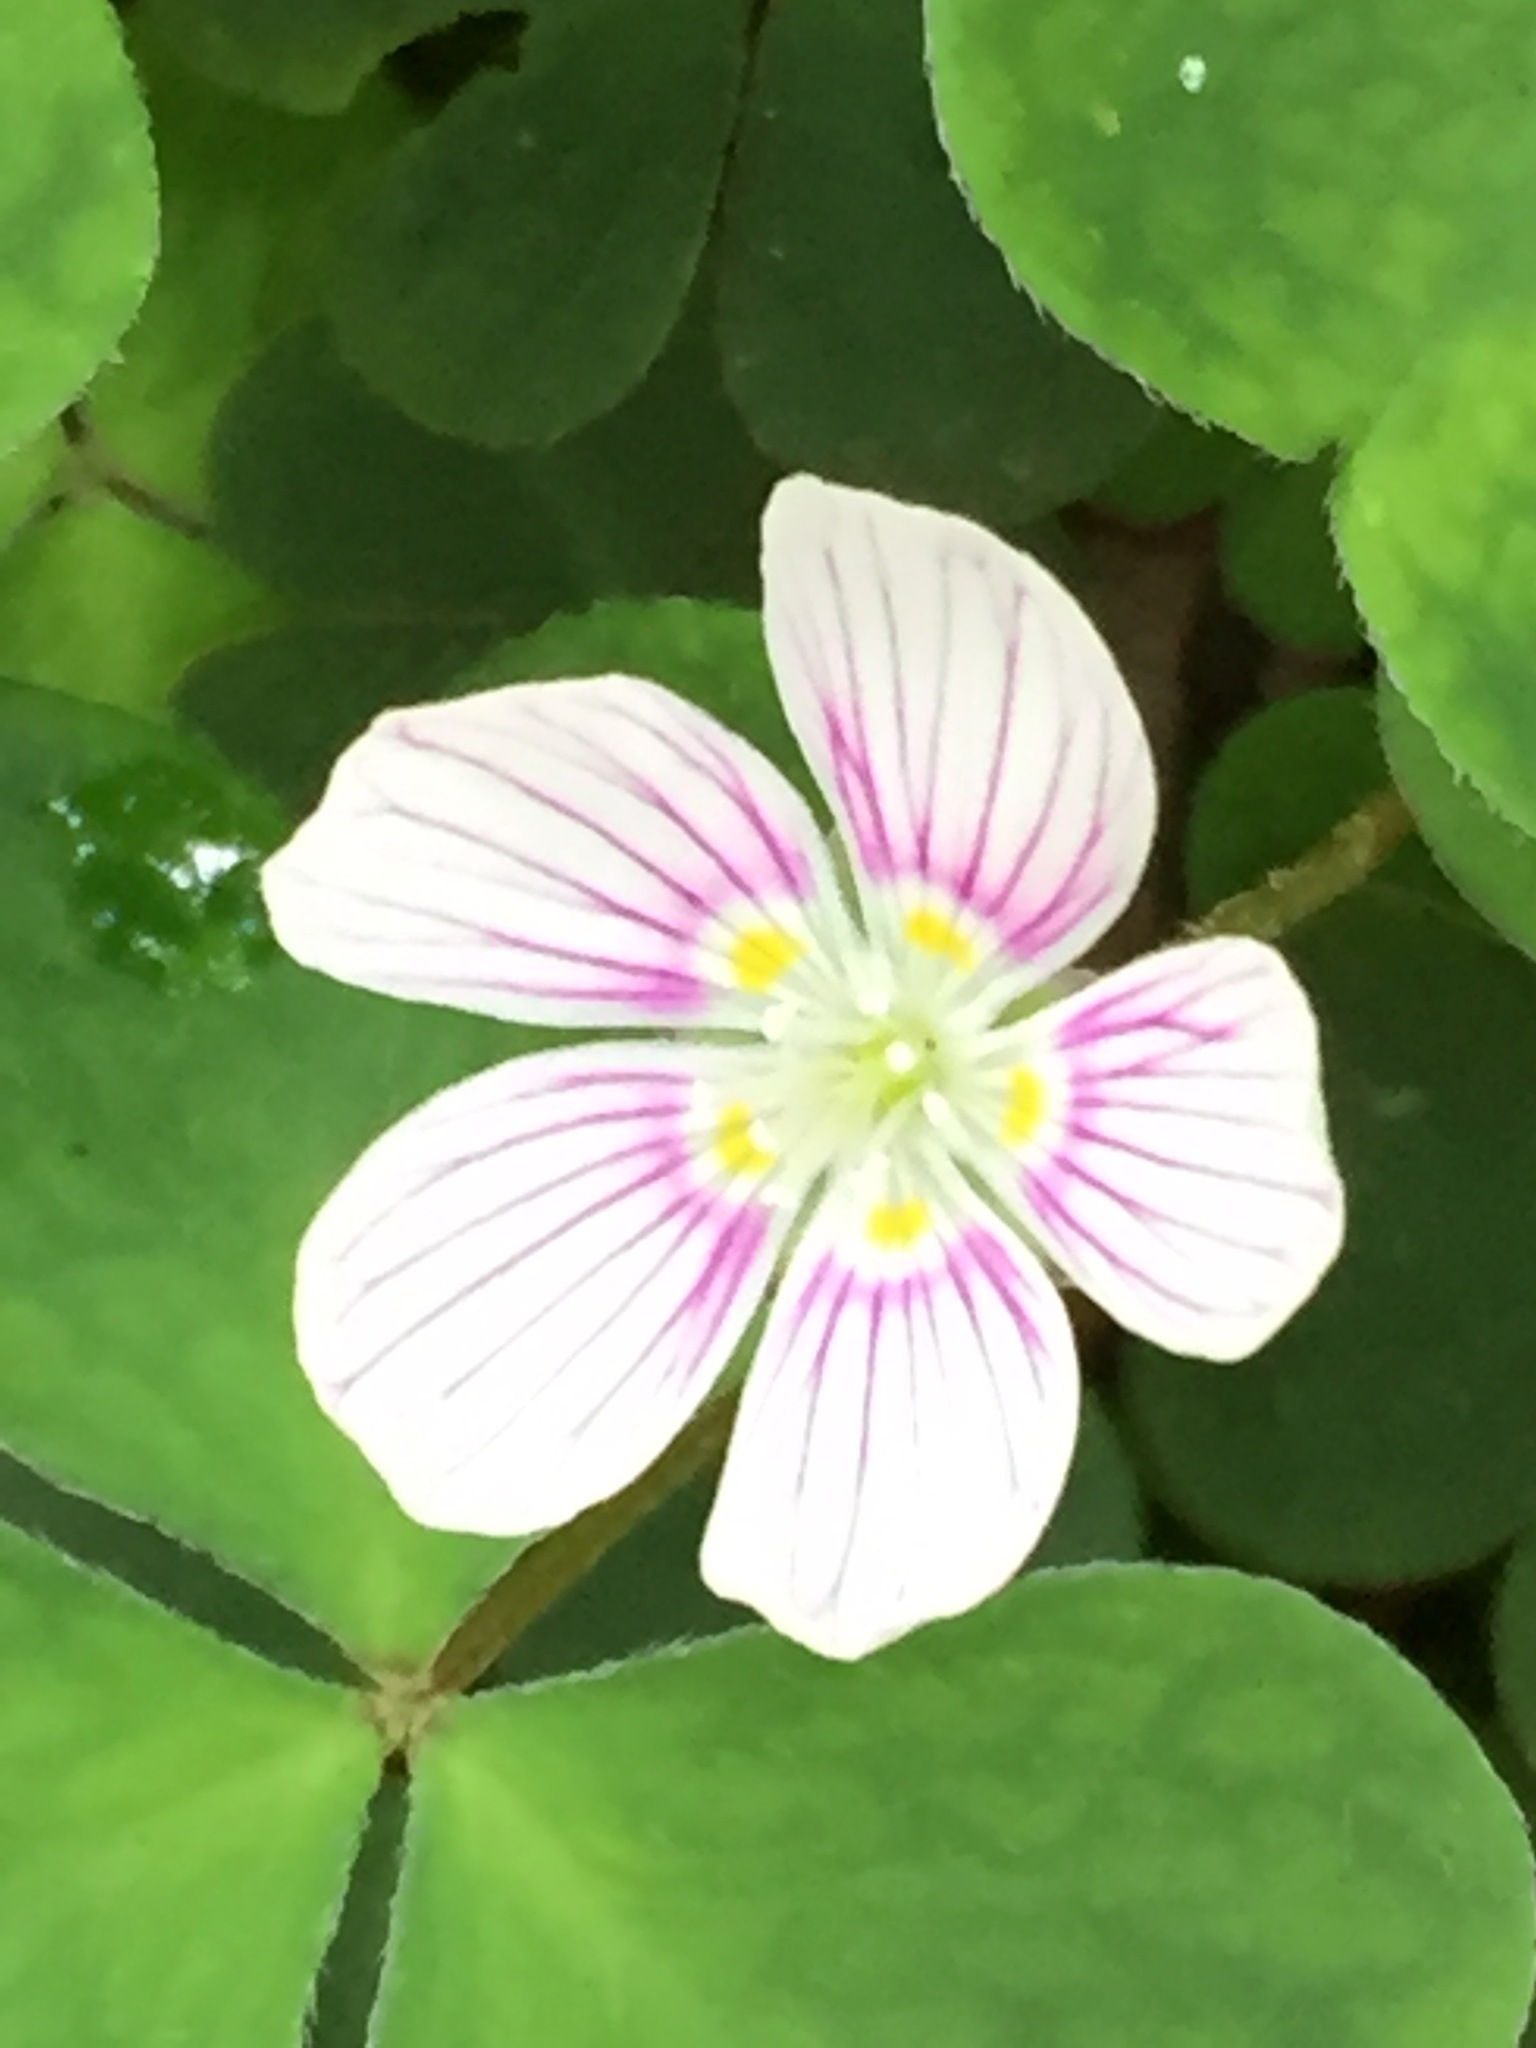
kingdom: Plantae
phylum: Tracheophyta
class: Magnoliopsida
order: Oxalidales
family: Oxalidaceae
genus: Oxalis
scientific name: Oxalis montana
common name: American wood-sorrel
